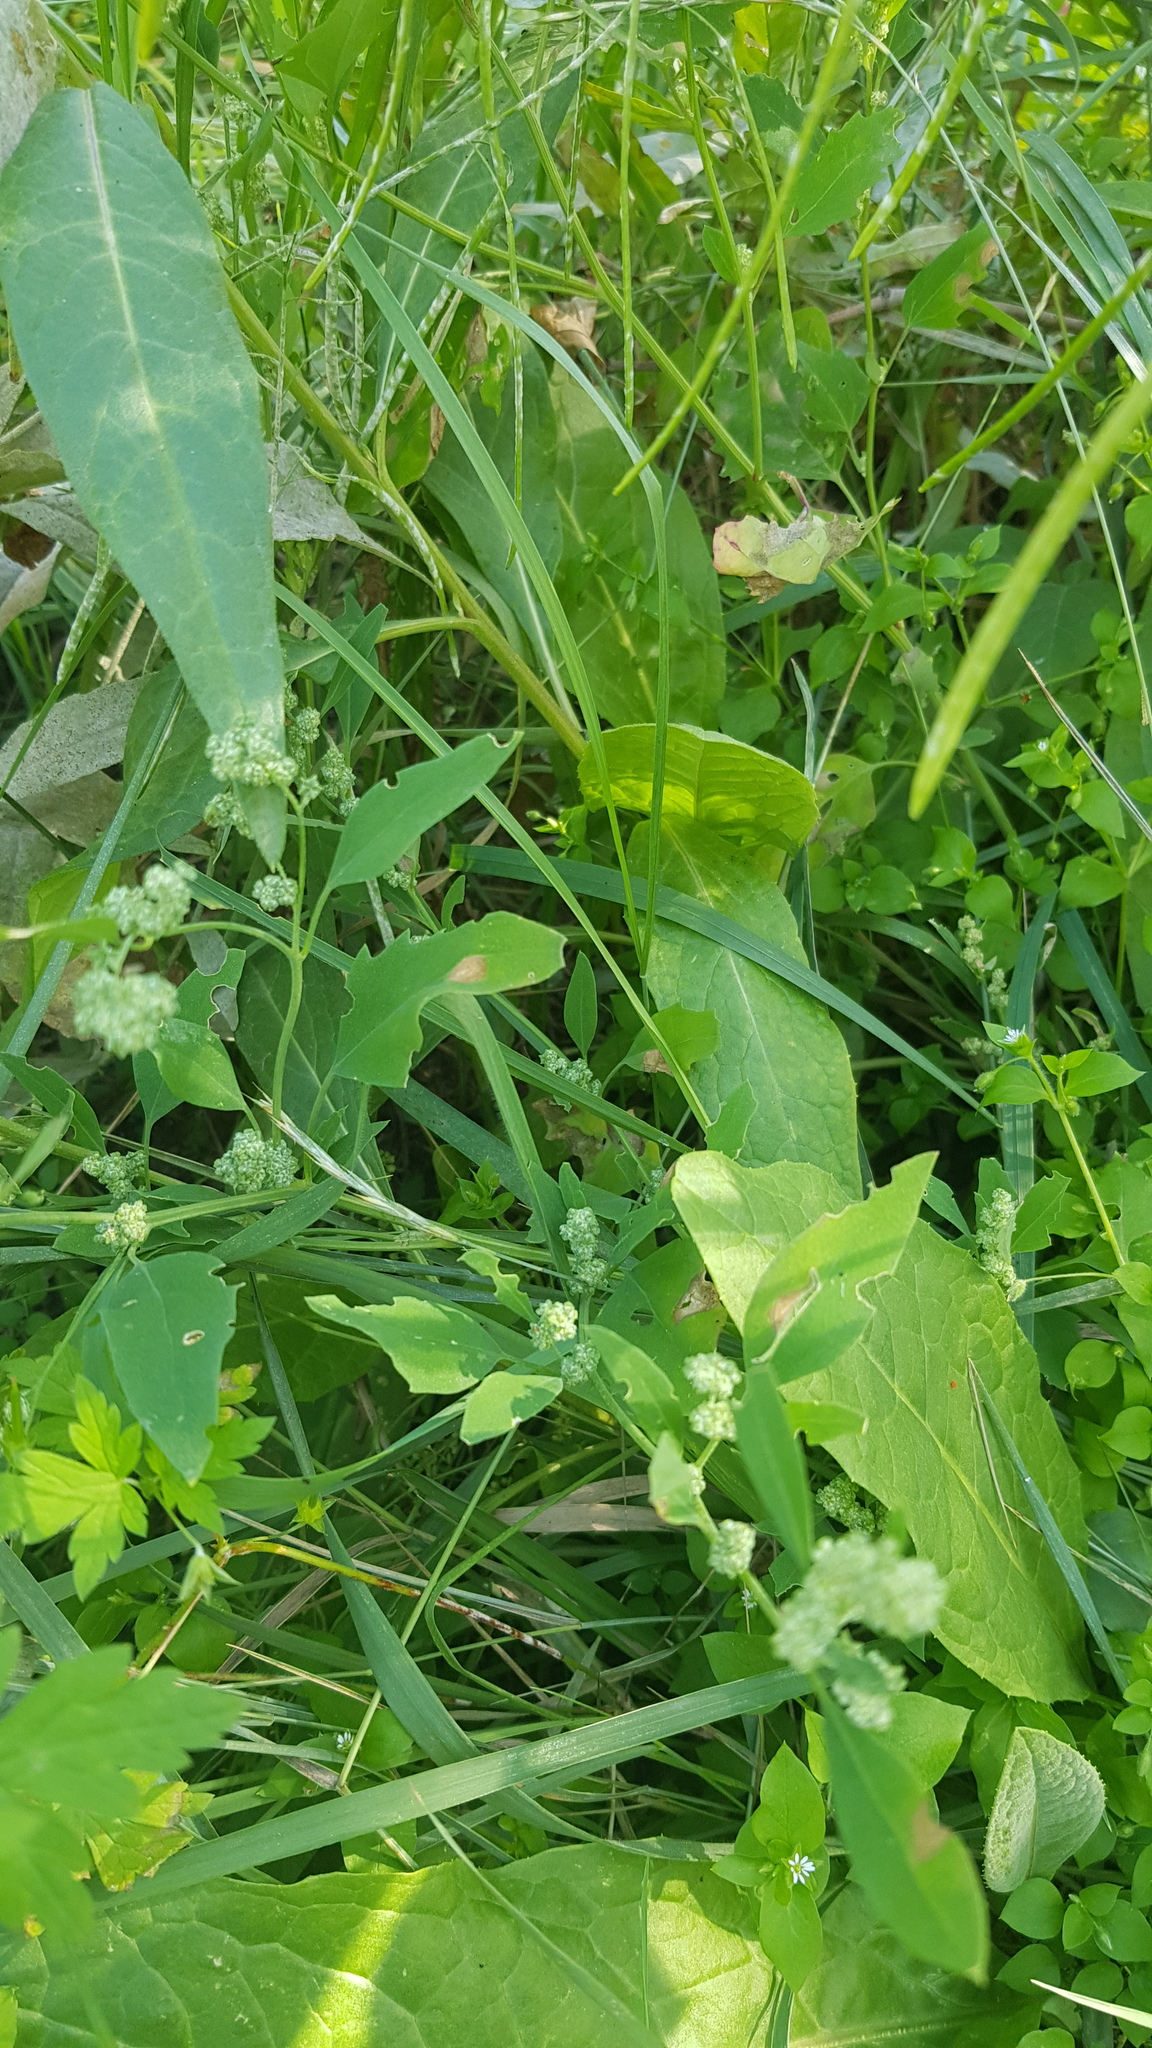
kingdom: Plantae
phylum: Tracheophyta
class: Magnoliopsida
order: Caryophyllales
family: Amaranthaceae
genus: Chenopodium
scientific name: Chenopodium album
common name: Fat-hen
